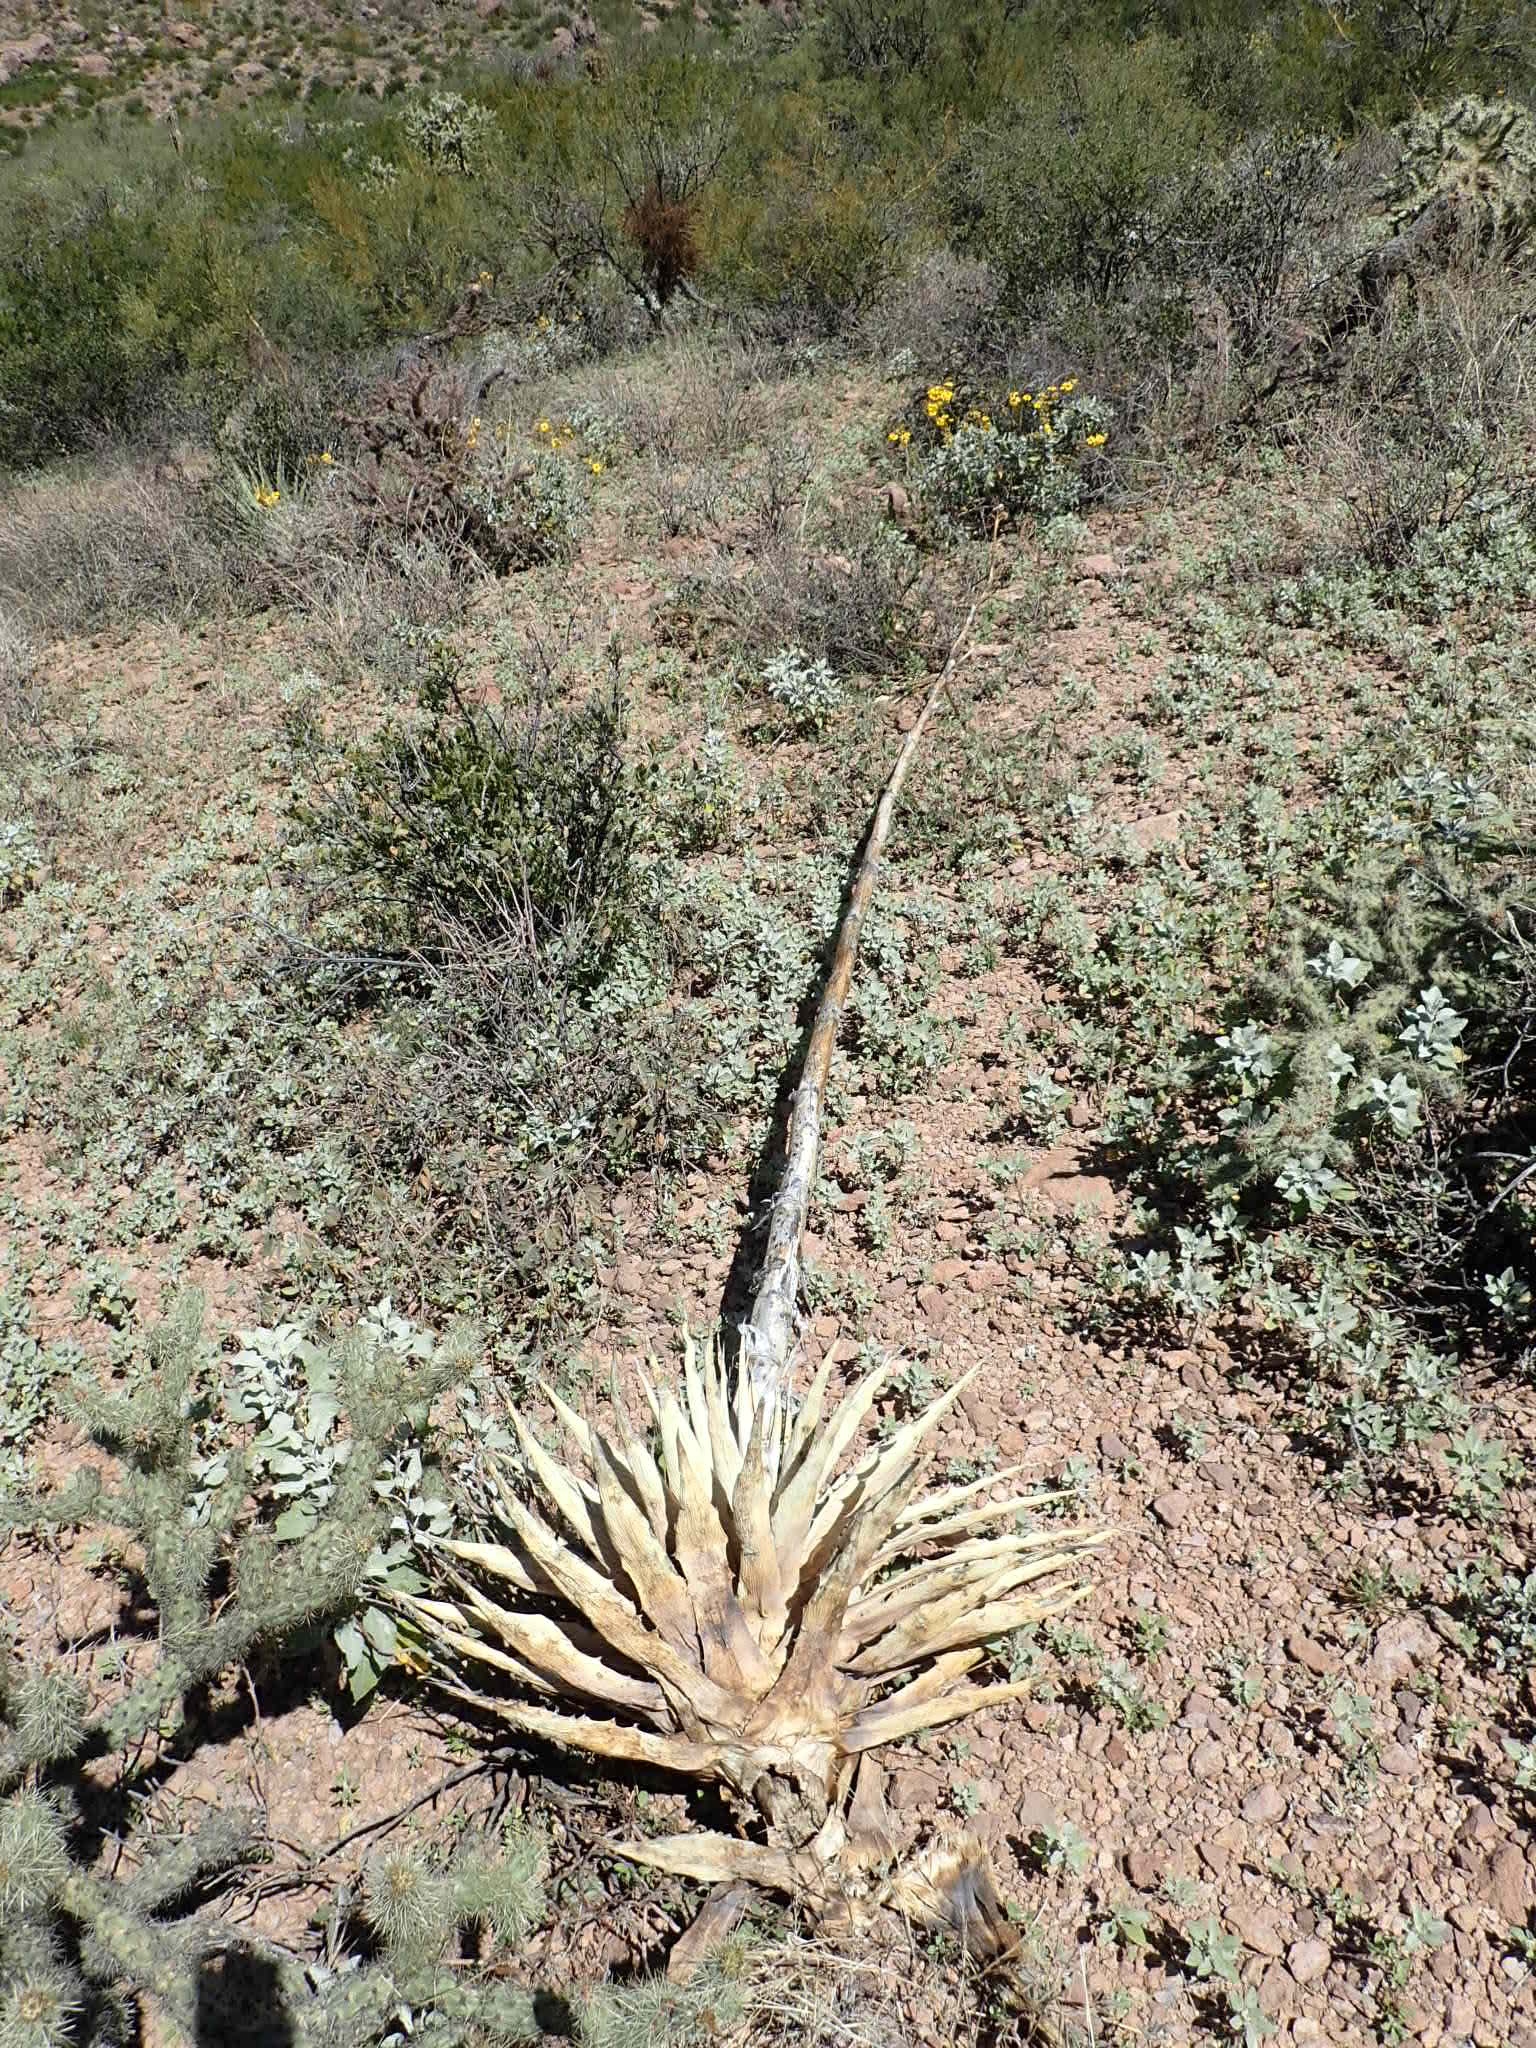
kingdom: Plantae
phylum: Tracheophyta
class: Liliopsida
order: Asparagales
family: Asparagaceae
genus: Agave
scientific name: Agave simplex
